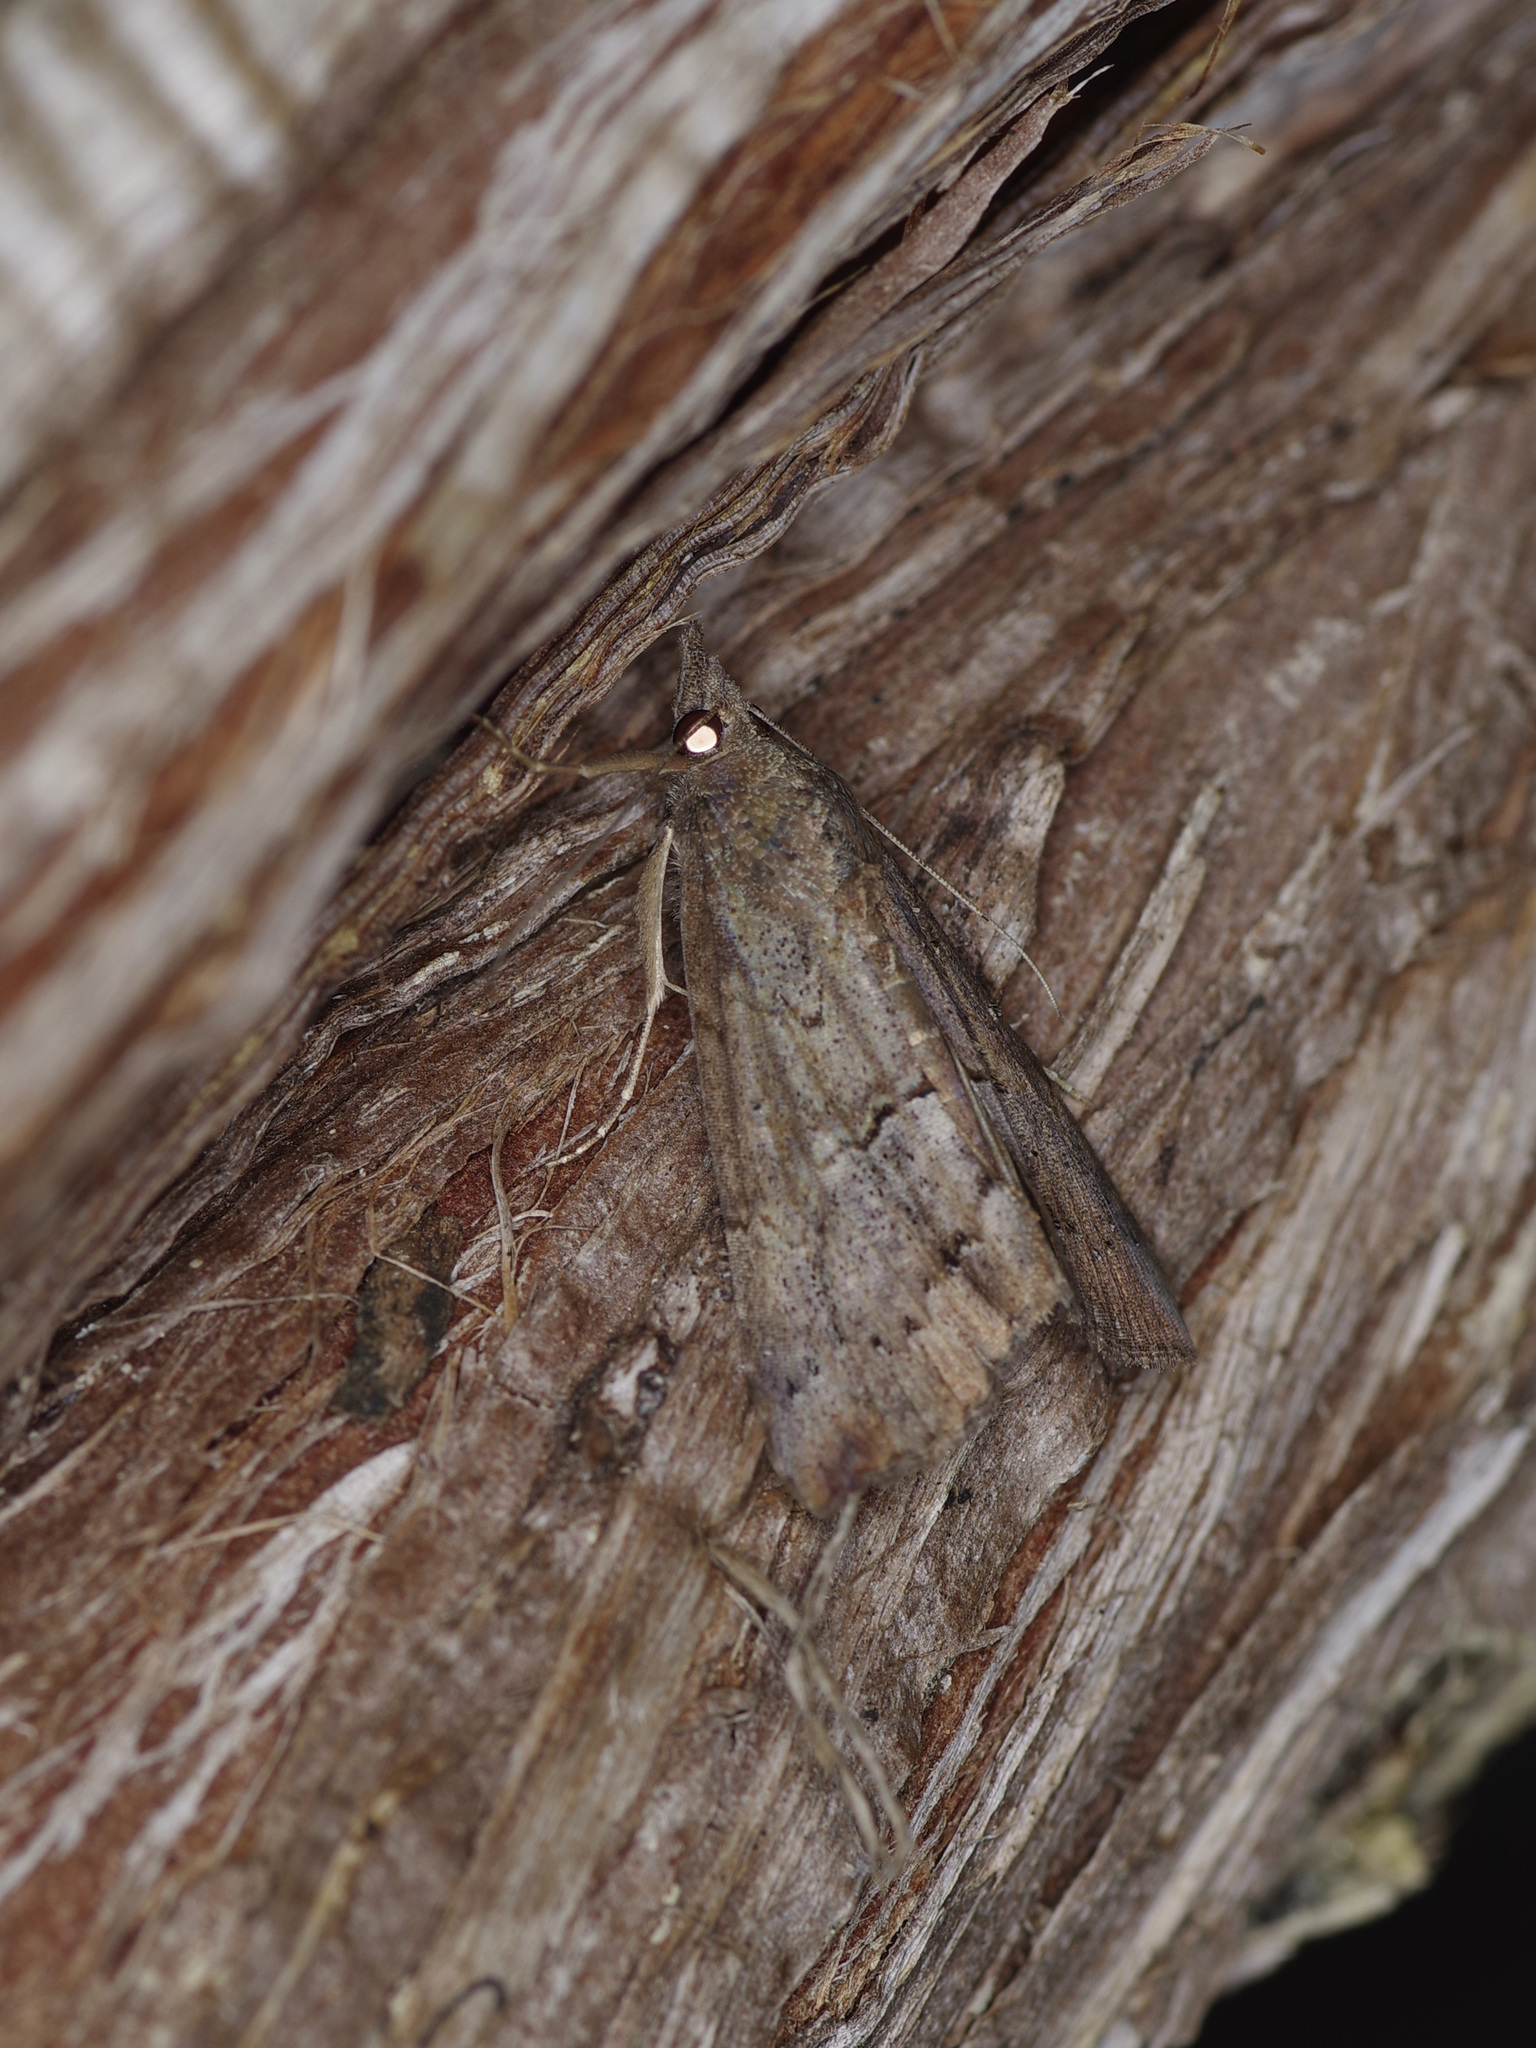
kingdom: Animalia
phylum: Arthropoda
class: Insecta
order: Lepidoptera
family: Erebidae
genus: Hypena
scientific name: Hypena scabra
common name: Green cloverworm
